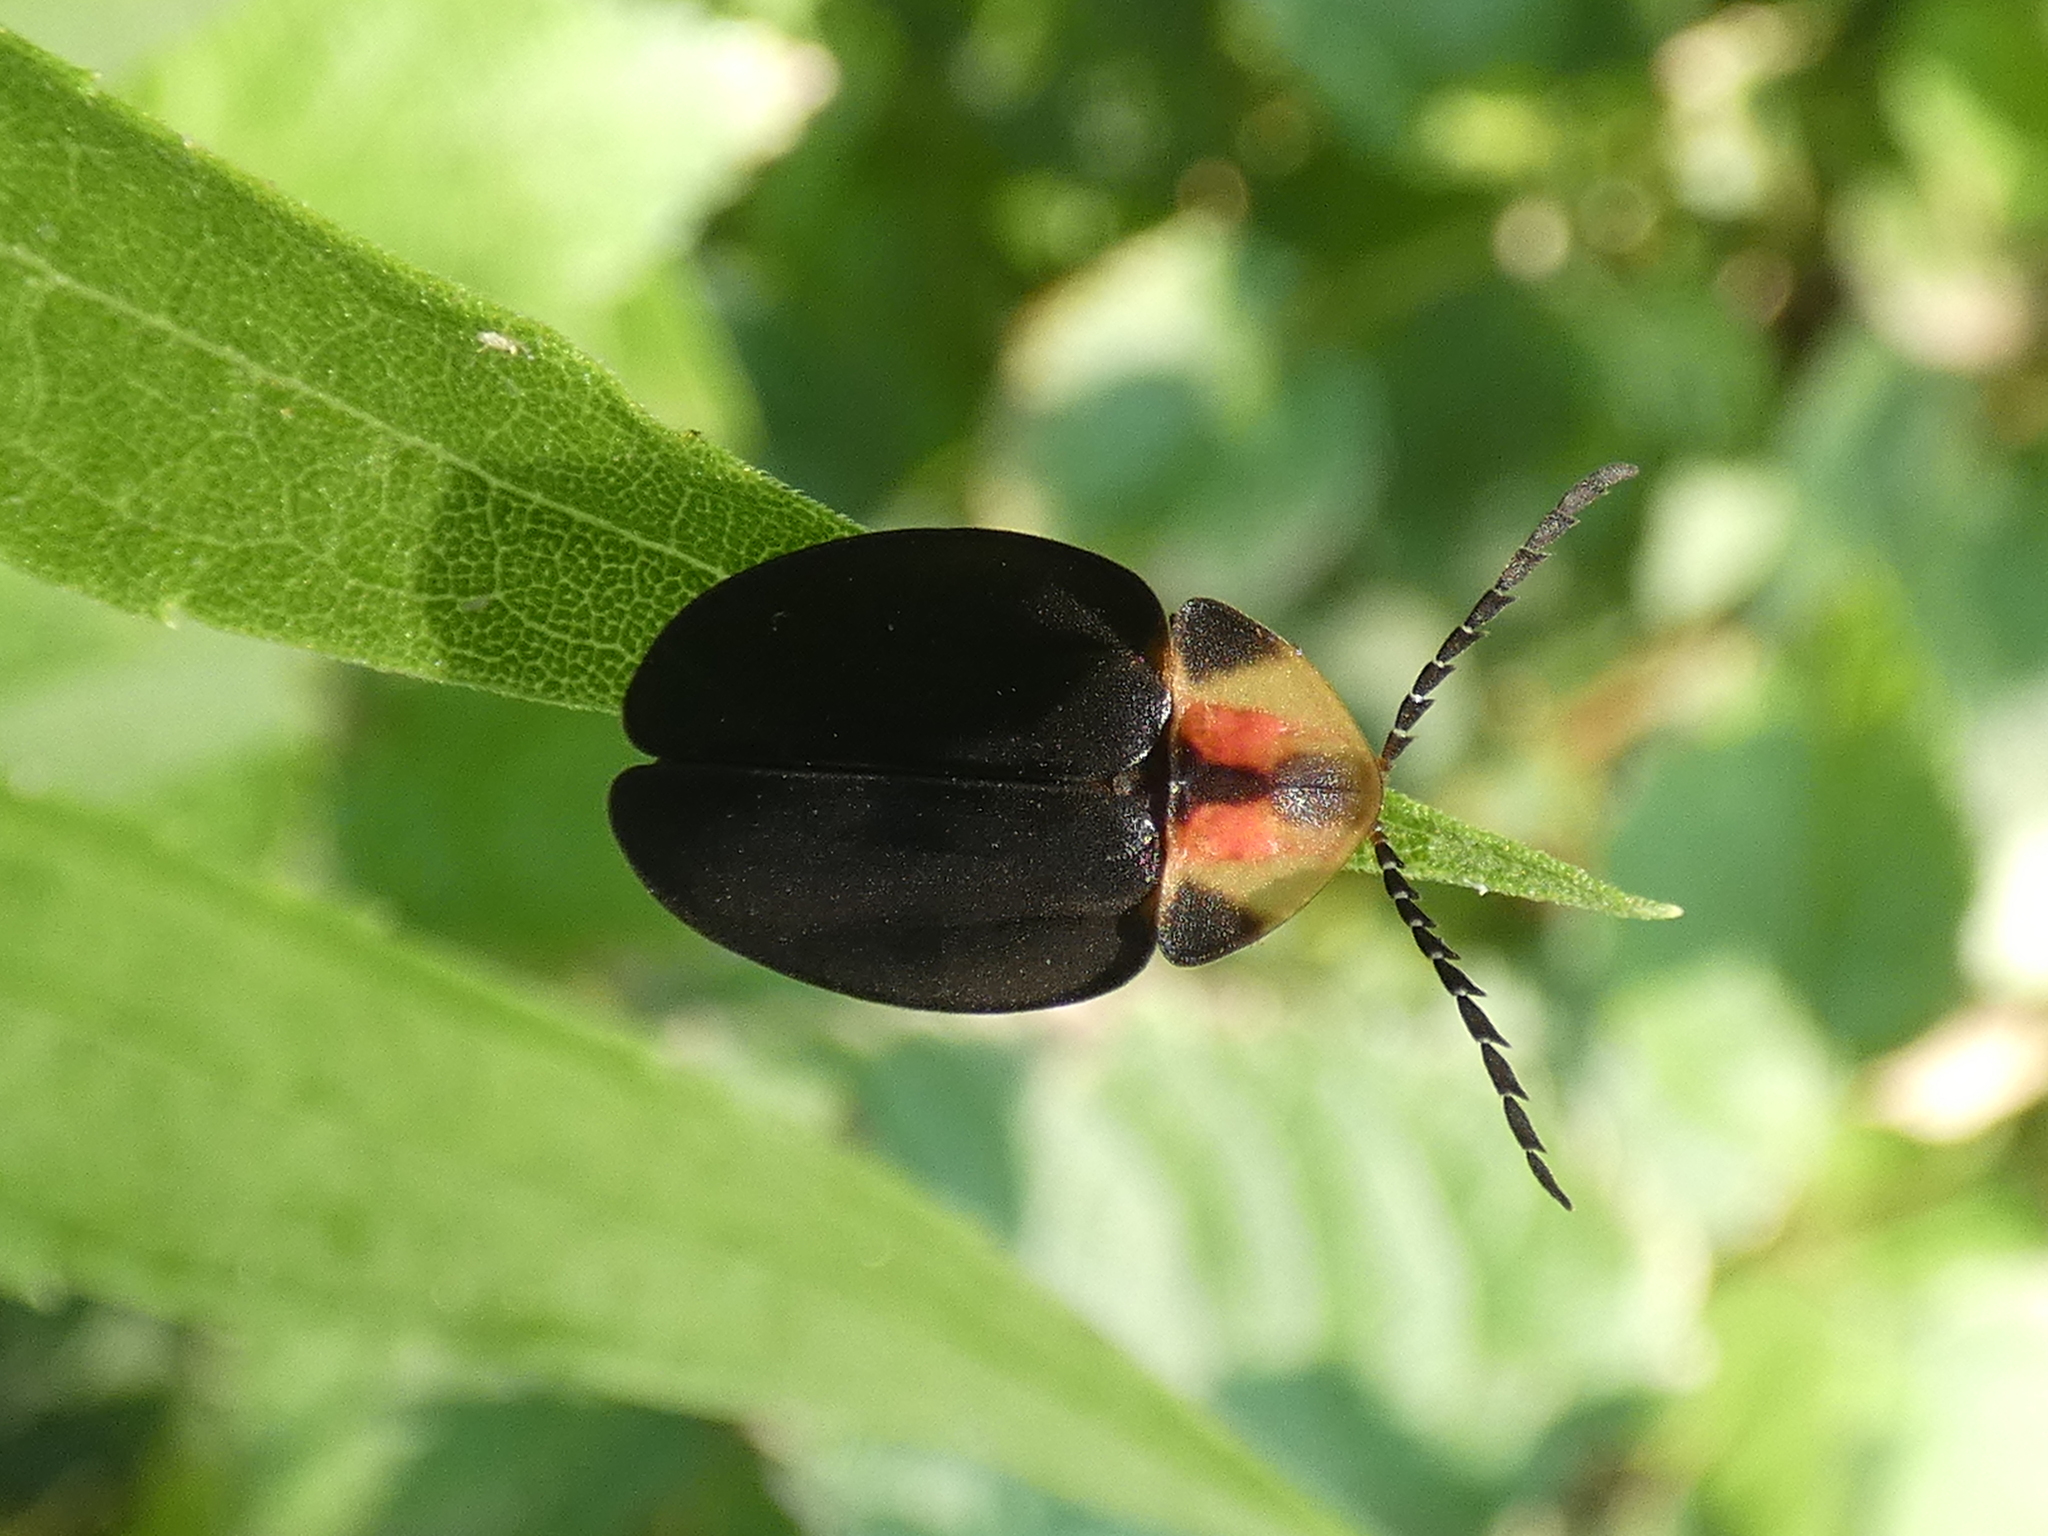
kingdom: Animalia
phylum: Arthropoda
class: Insecta
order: Coleoptera
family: Lampyridae
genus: Tenaspis
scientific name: Tenaspis angularis
